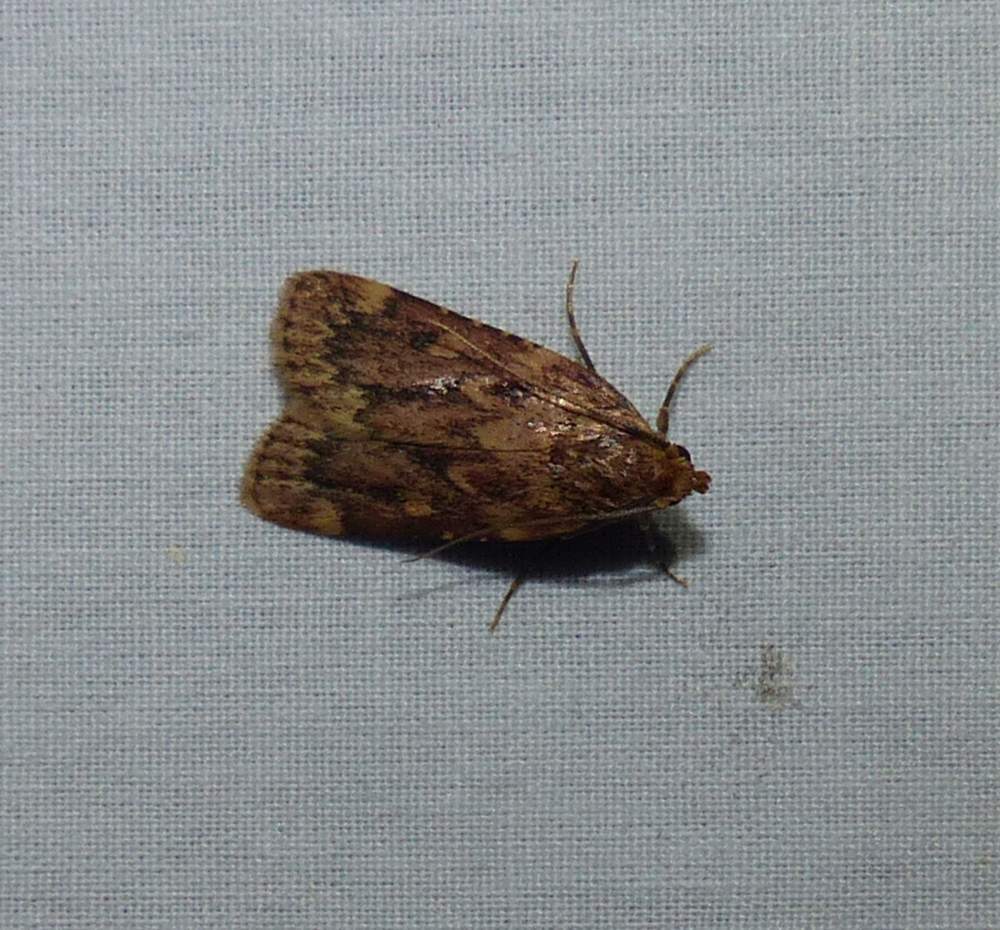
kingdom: Animalia
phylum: Arthropoda
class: Insecta
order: Lepidoptera
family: Pyralidae
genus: Aglossa
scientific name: Aglossa cuprina
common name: Grease moth
